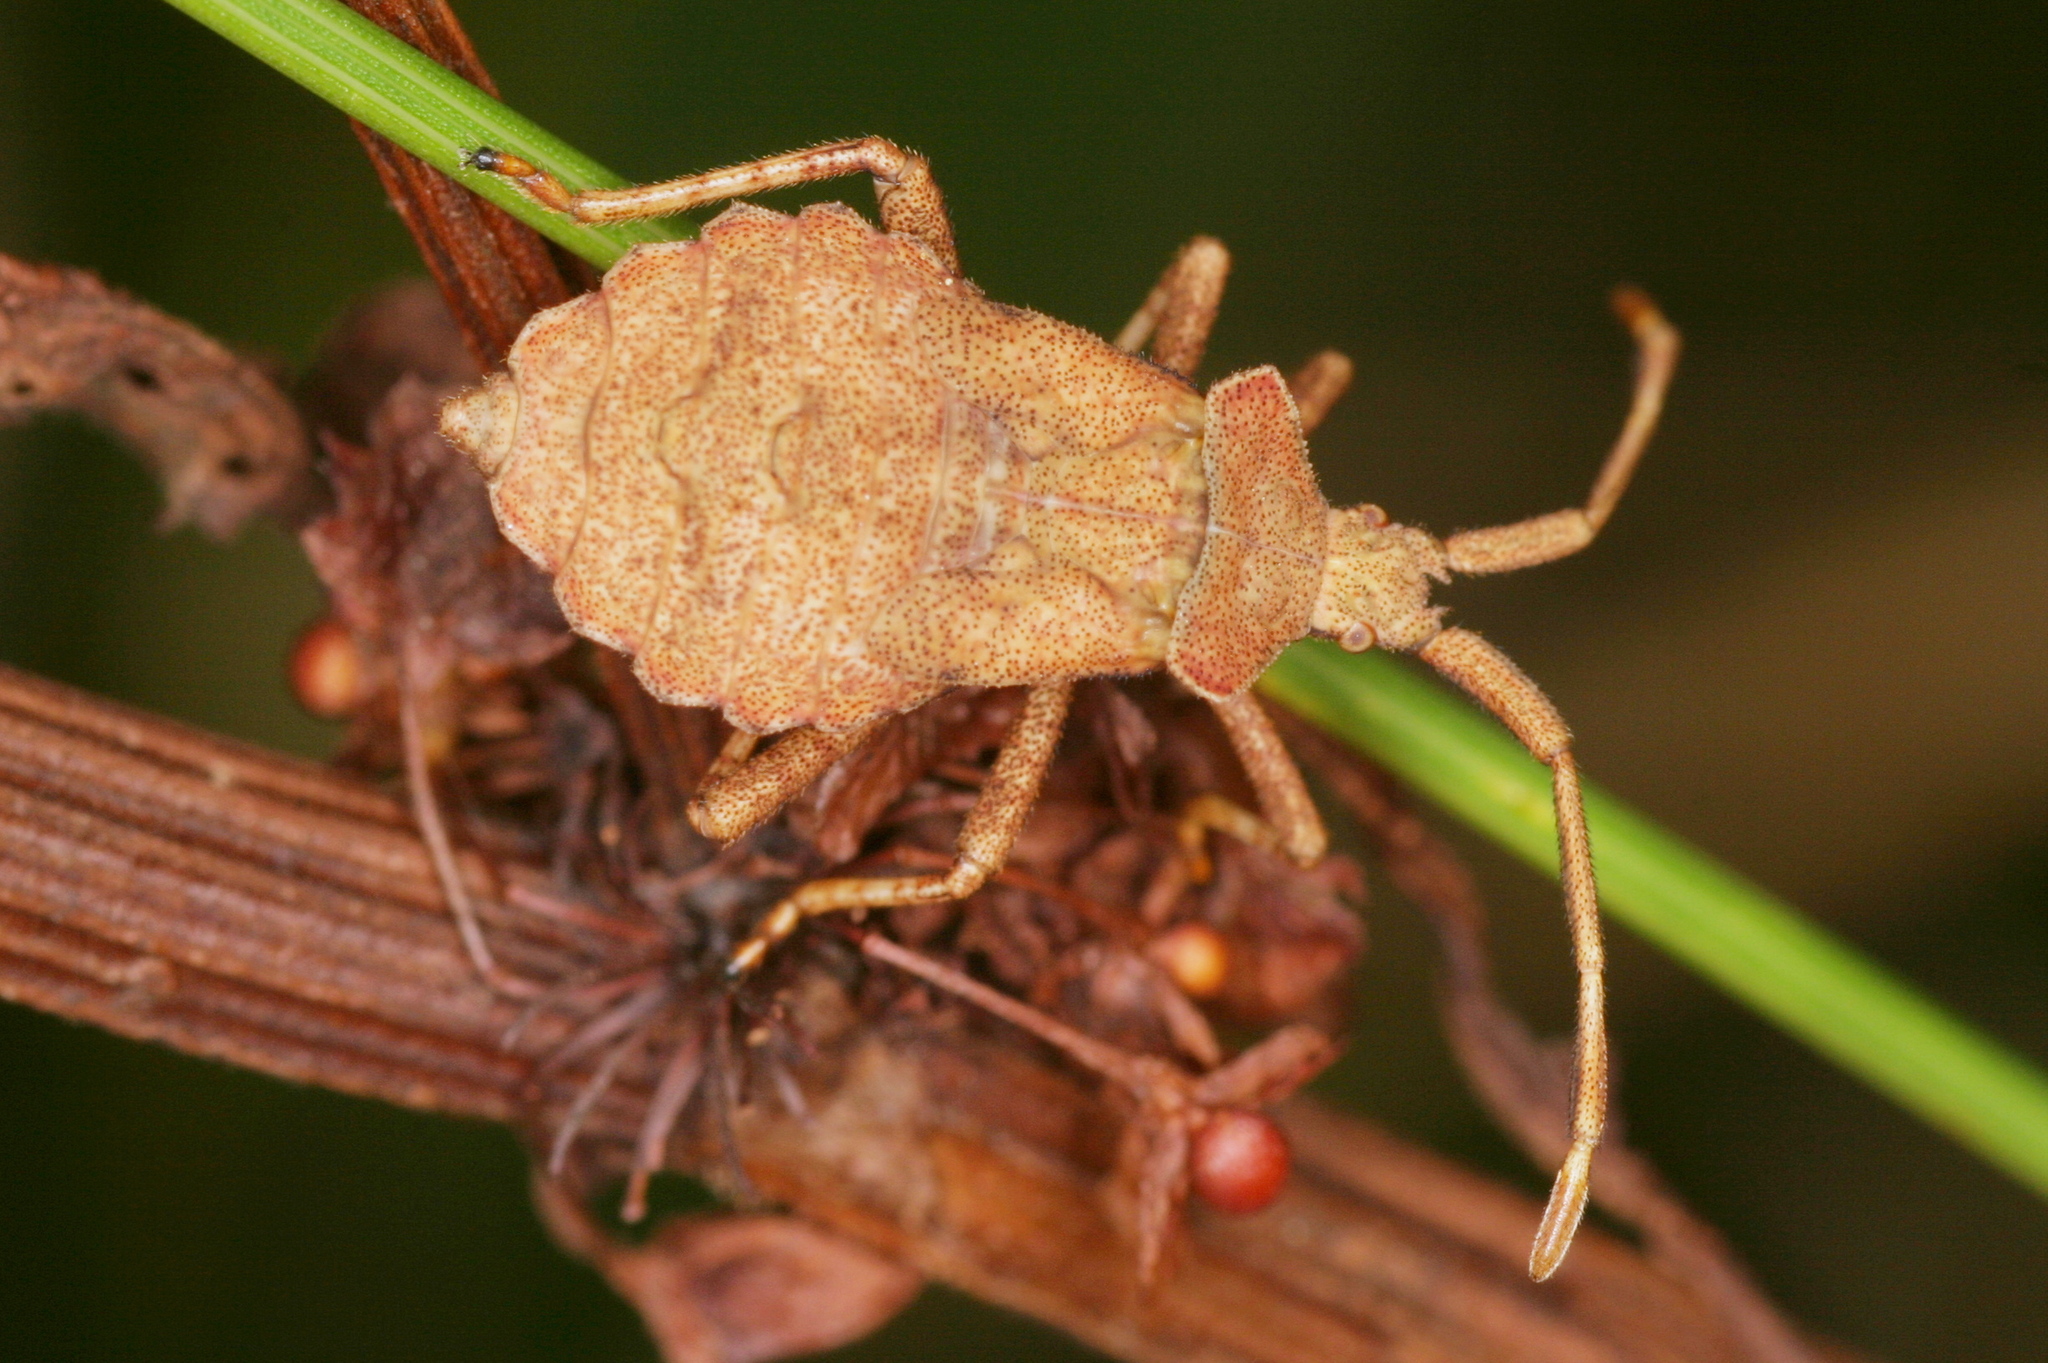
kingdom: Animalia
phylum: Arthropoda
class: Insecta
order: Hemiptera
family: Coreidae
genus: Coreus
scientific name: Coreus marginatus
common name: Dock bug
